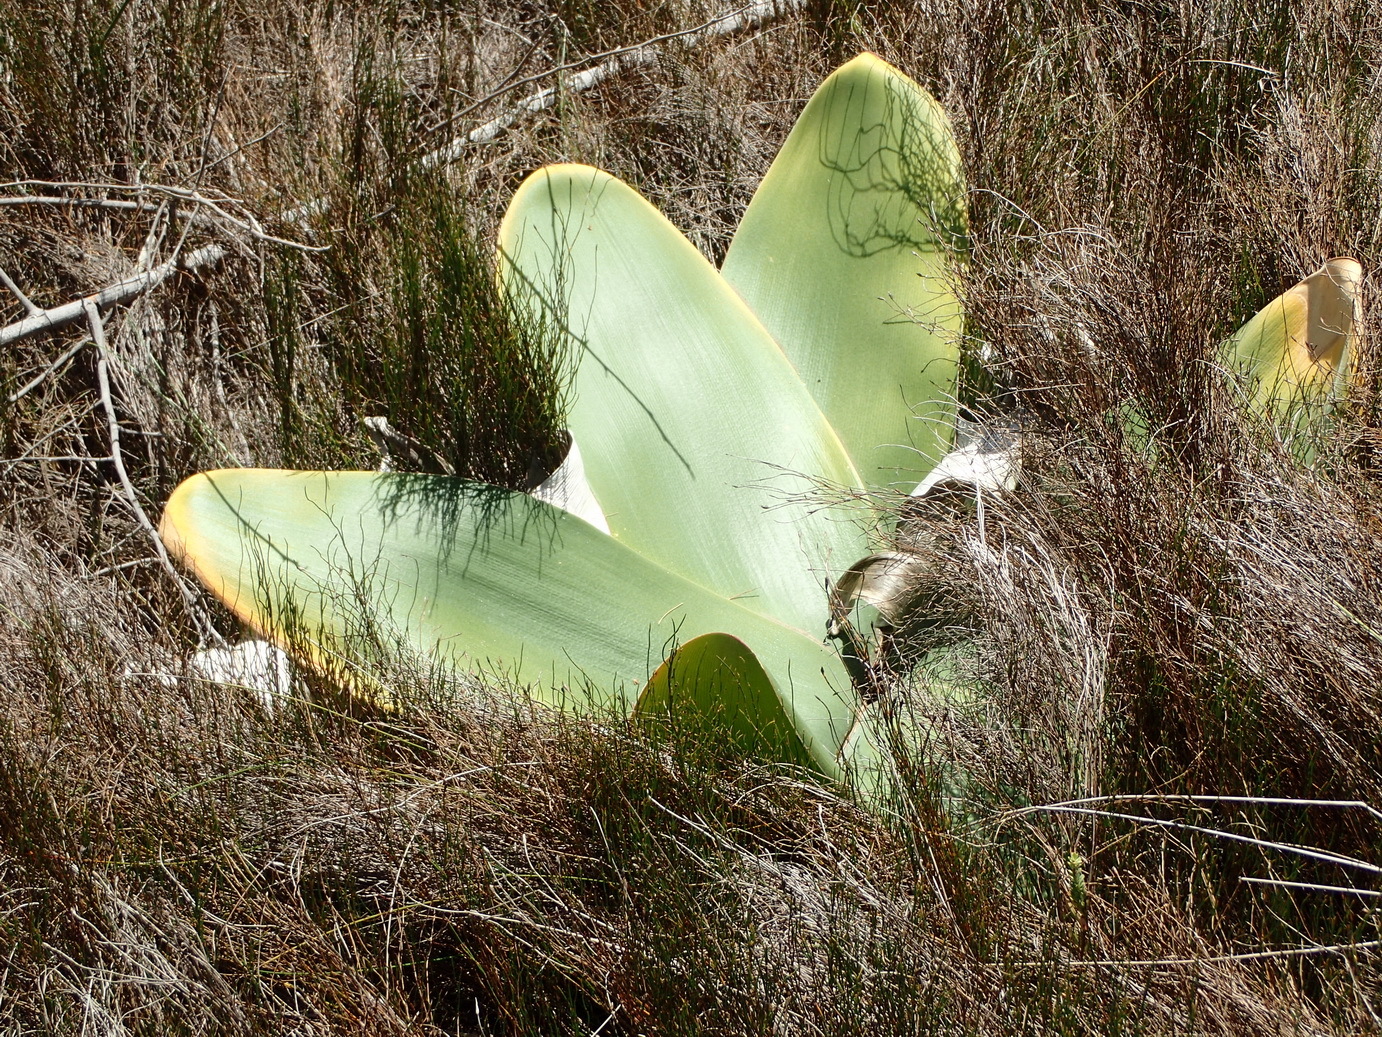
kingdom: Plantae
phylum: Tracheophyta
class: Liliopsida
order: Asparagales
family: Amaryllidaceae
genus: Brunsvigia
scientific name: Brunsvigia orientalis
